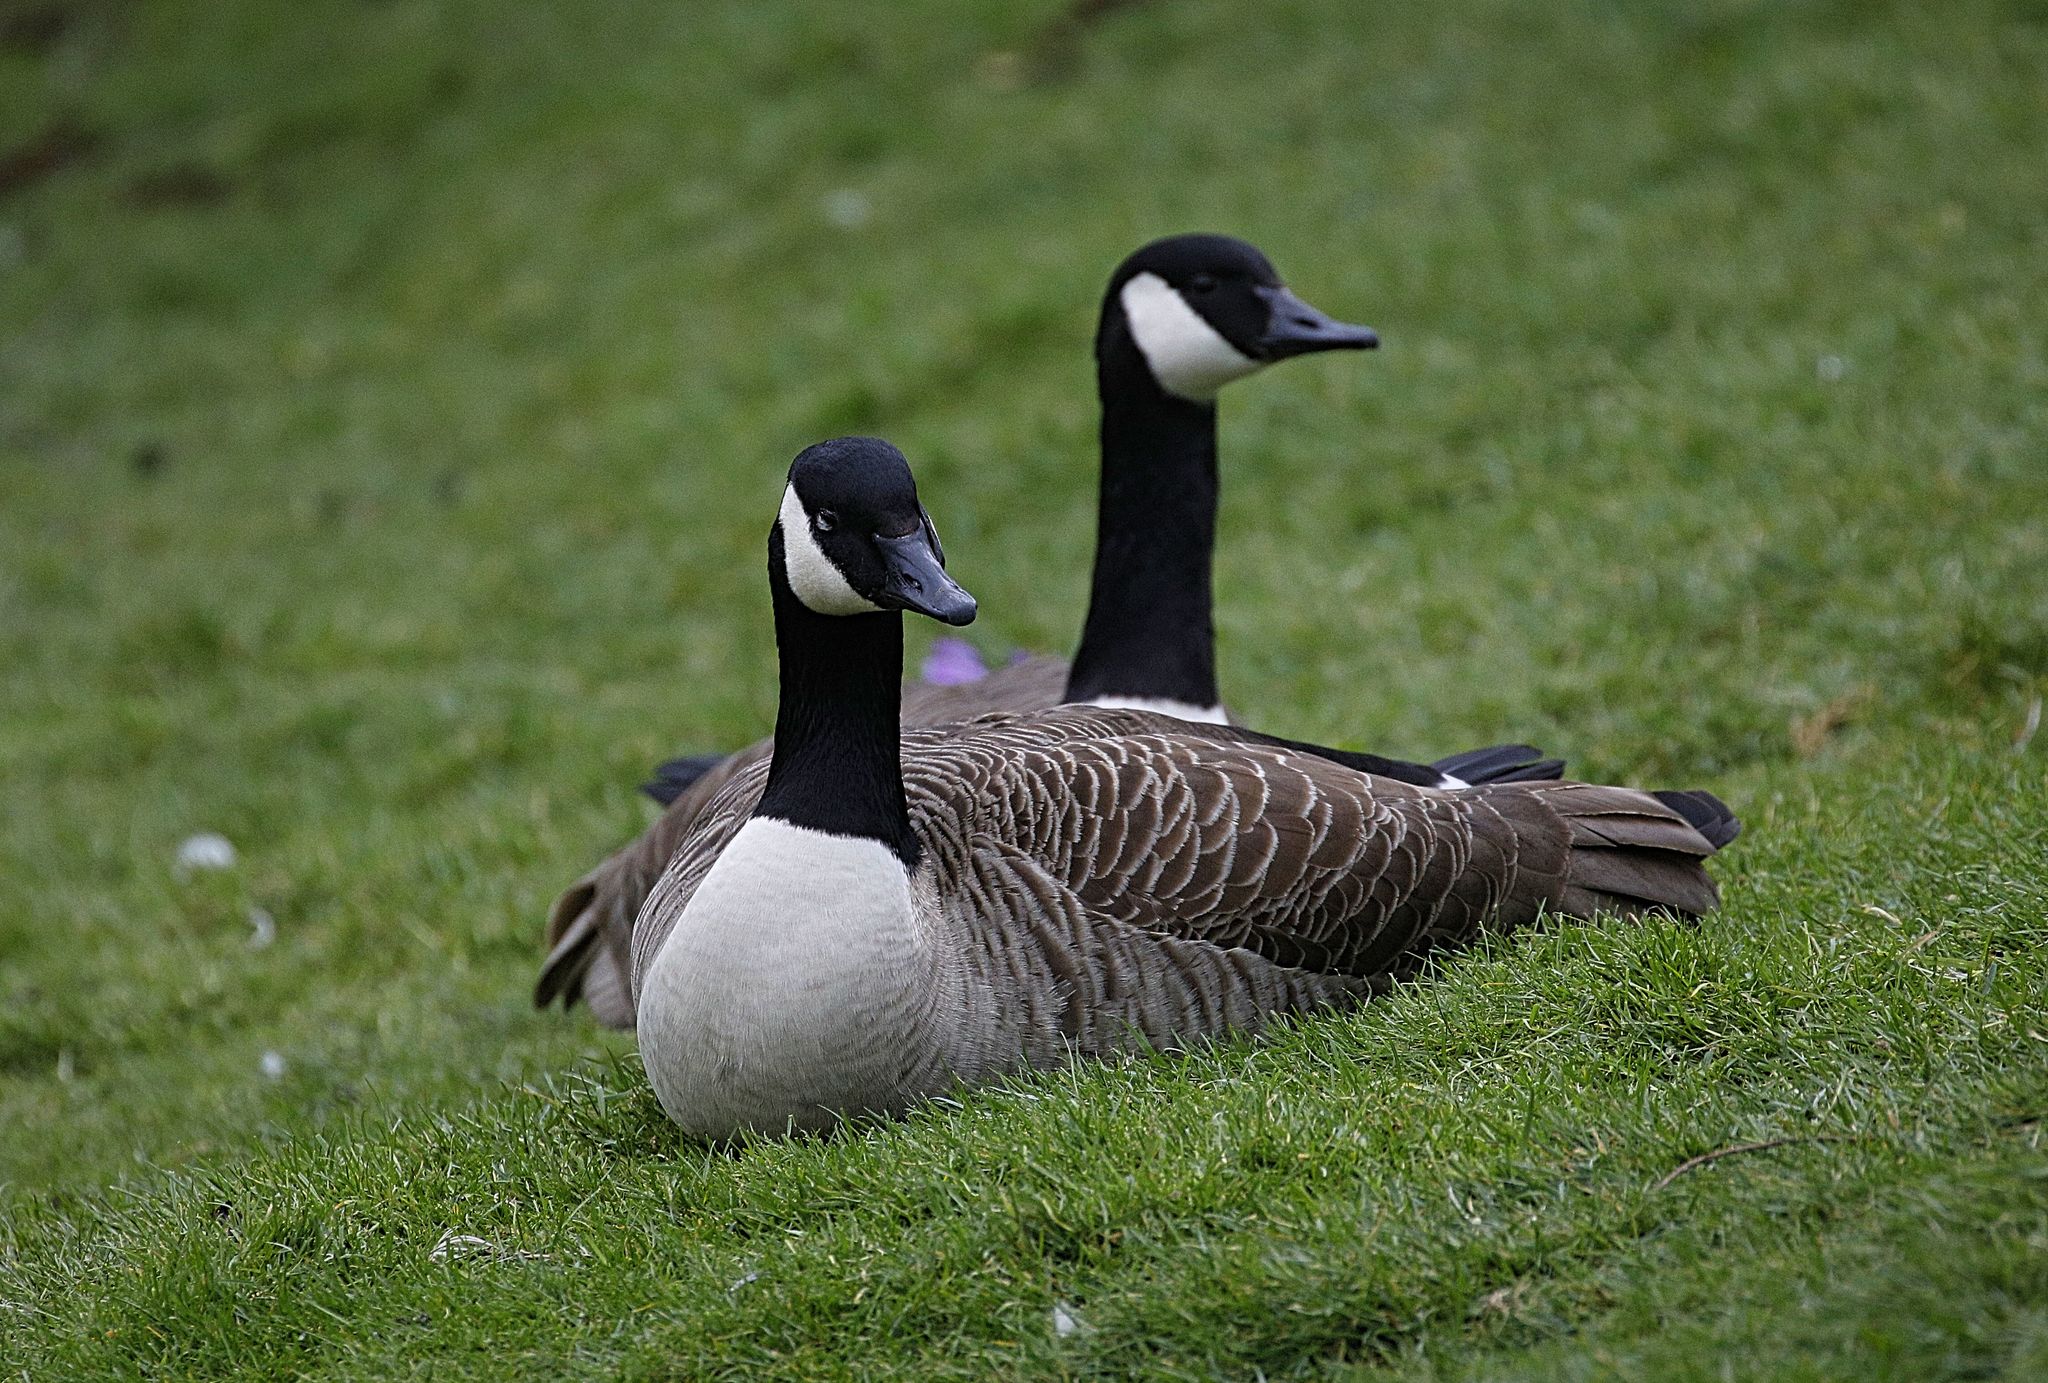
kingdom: Animalia
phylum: Chordata
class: Aves
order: Anseriformes
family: Anatidae
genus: Branta
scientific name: Branta canadensis
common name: Canada goose
